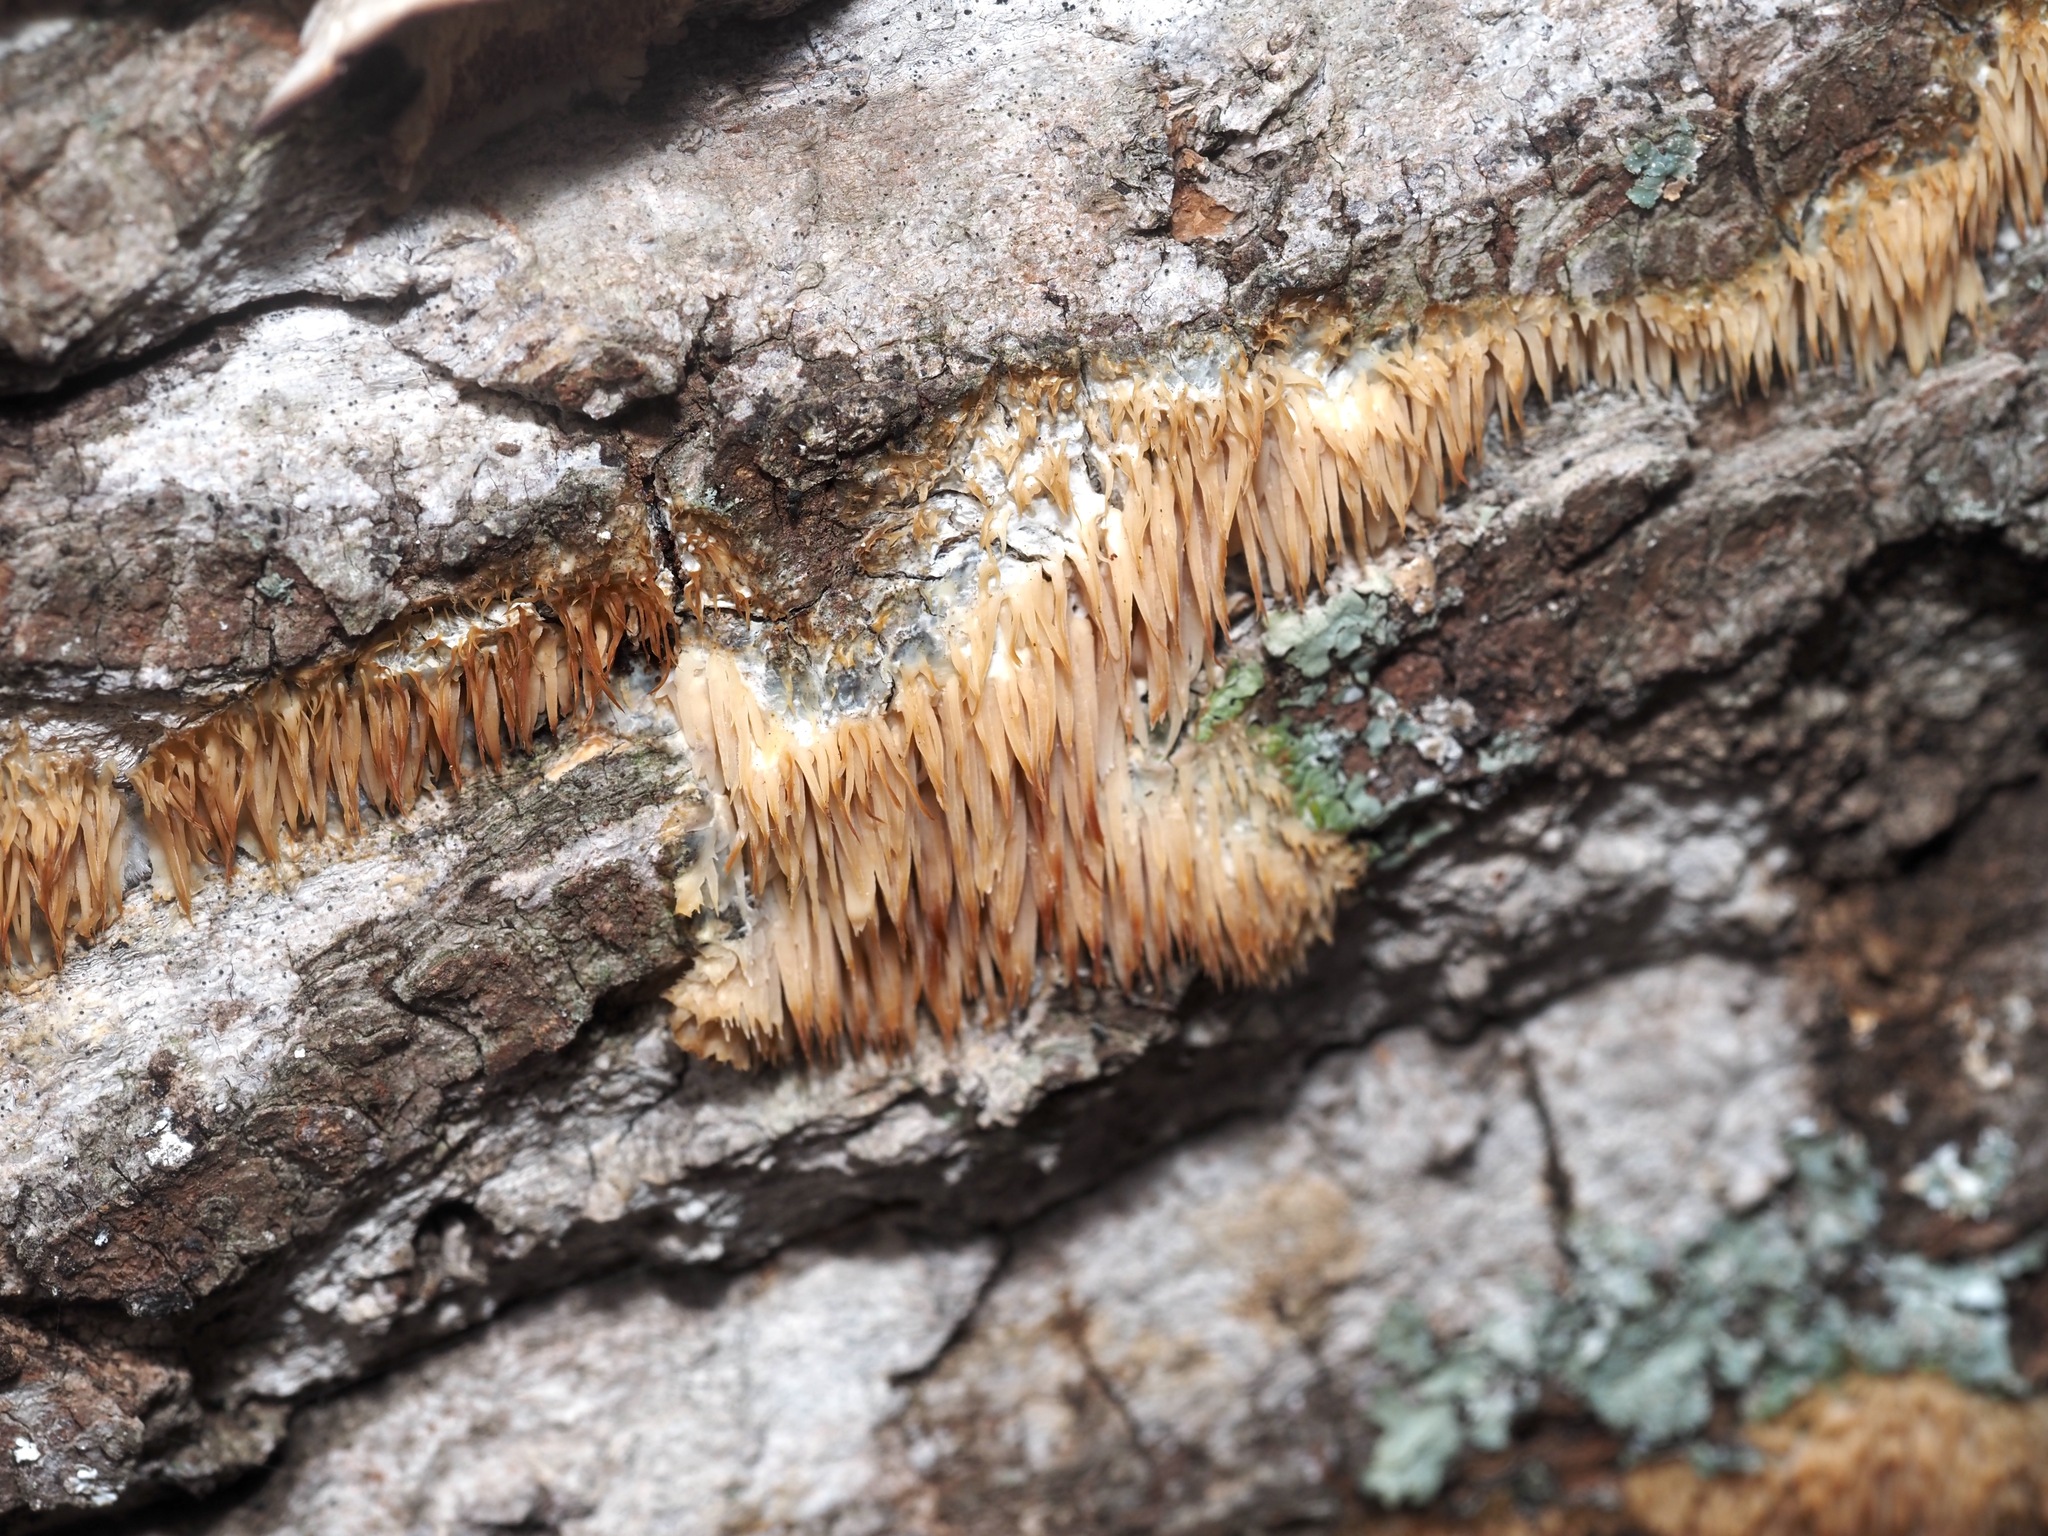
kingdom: Fungi
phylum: Basidiomycota
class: Agaricomycetes
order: Agaricales
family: Radulomycetaceae
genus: Radulomyces
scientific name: Radulomyces copelandii
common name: Asian beauty
